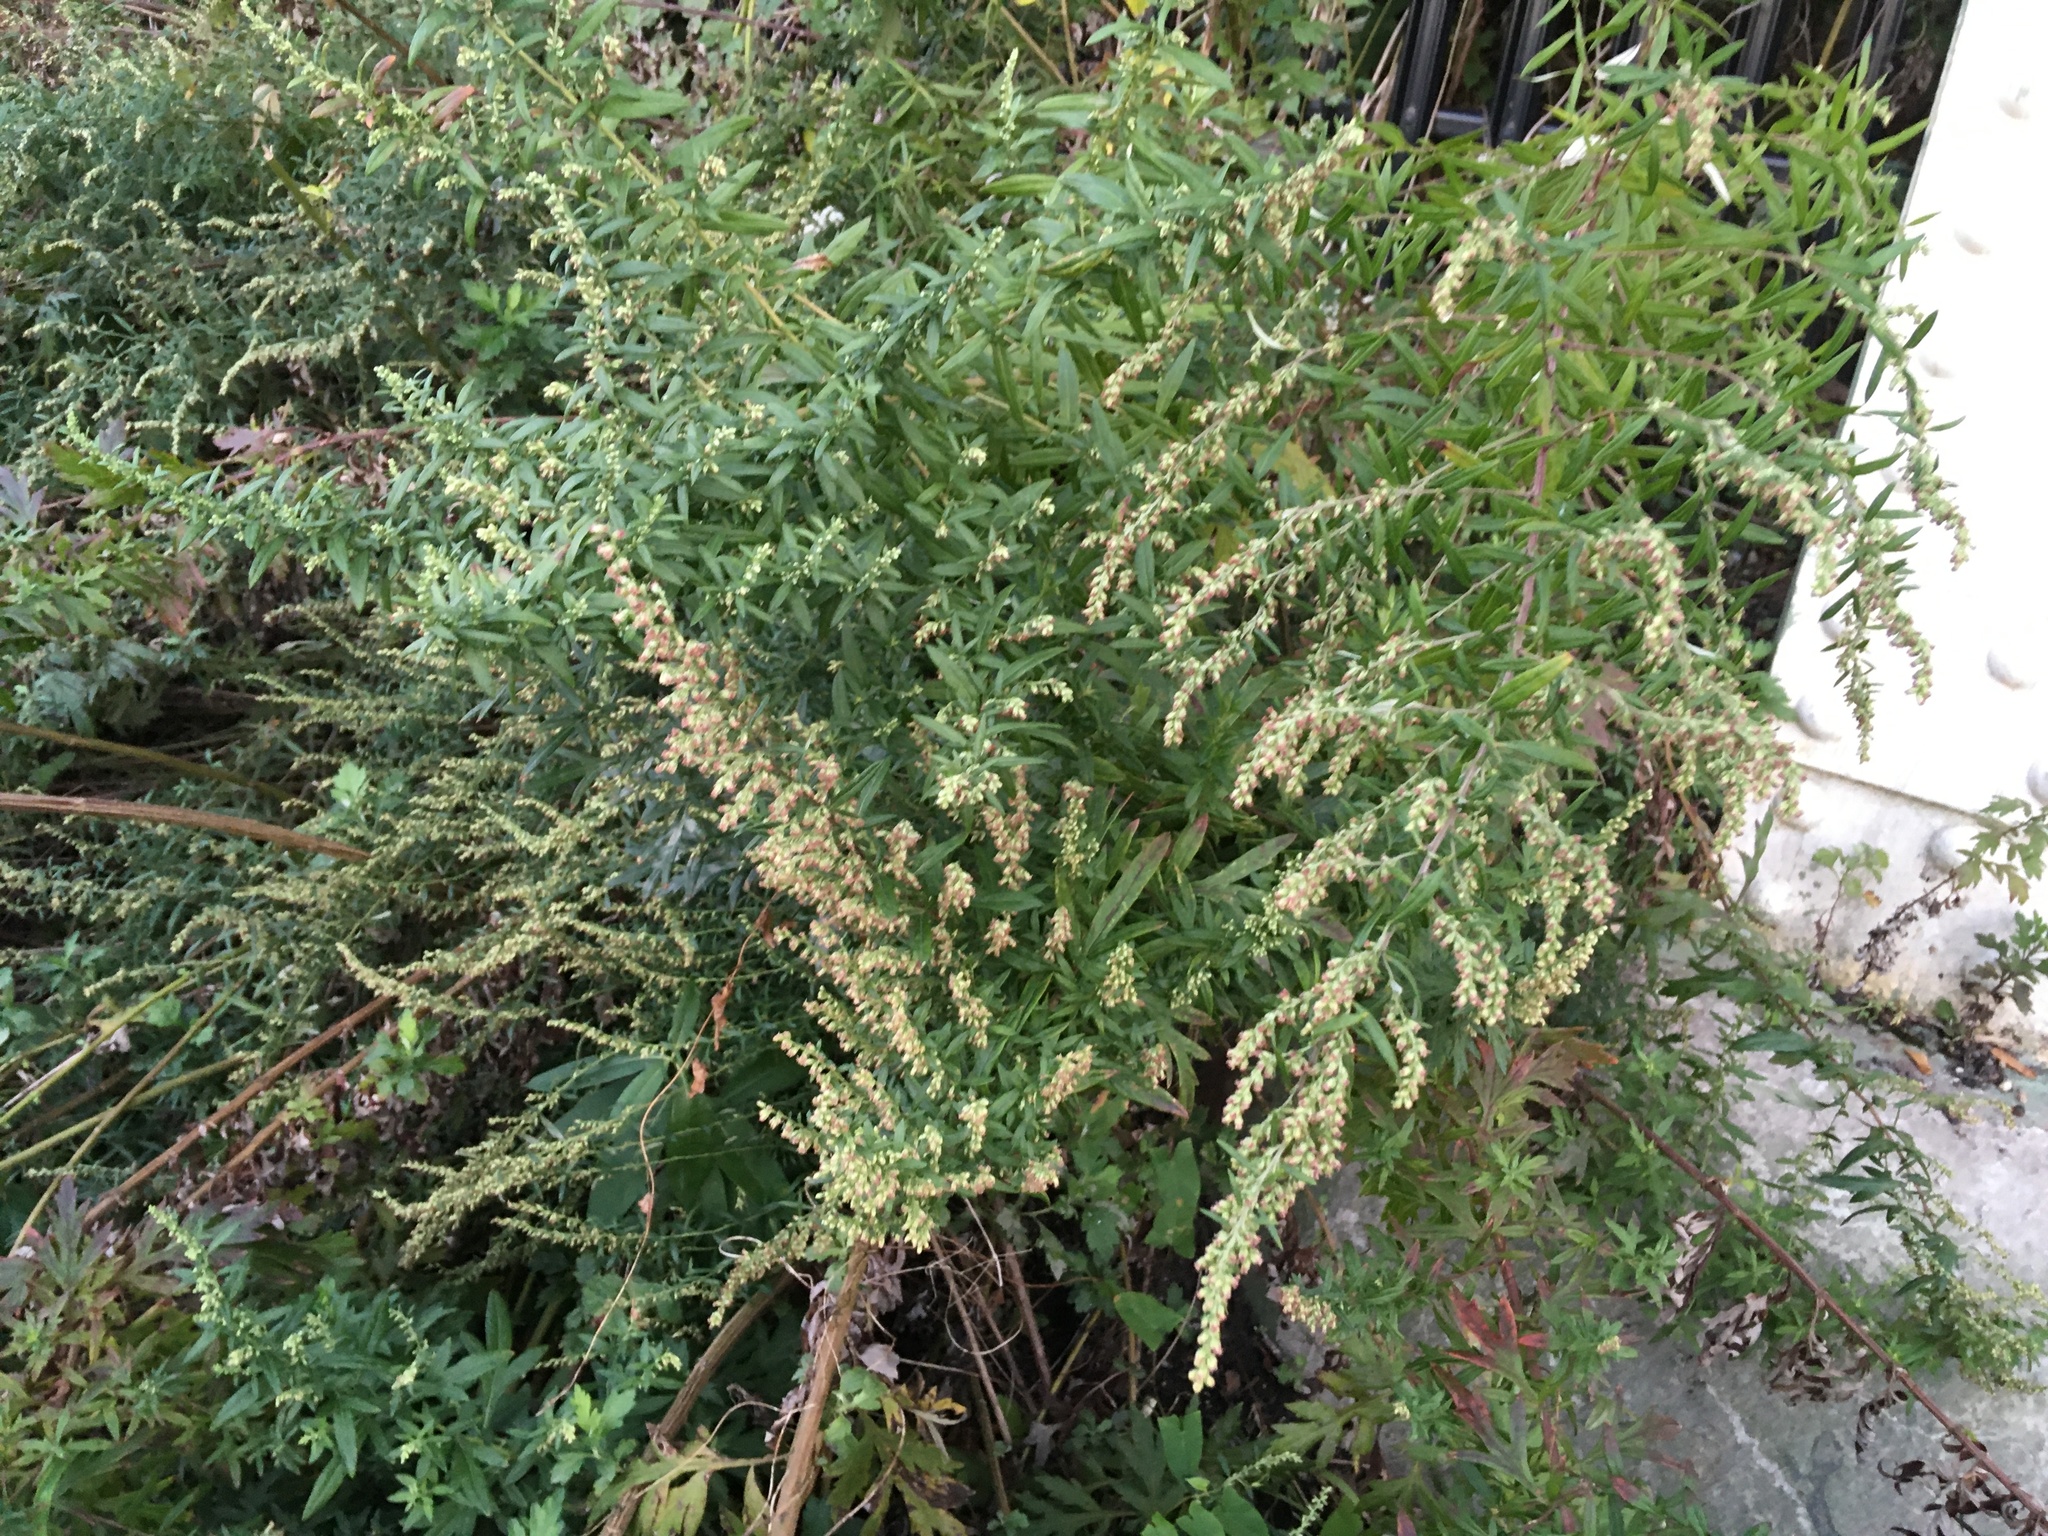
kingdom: Plantae
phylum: Tracheophyta
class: Magnoliopsida
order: Asterales
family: Asteraceae
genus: Artemisia
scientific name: Artemisia vulgaris
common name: Mugwort
